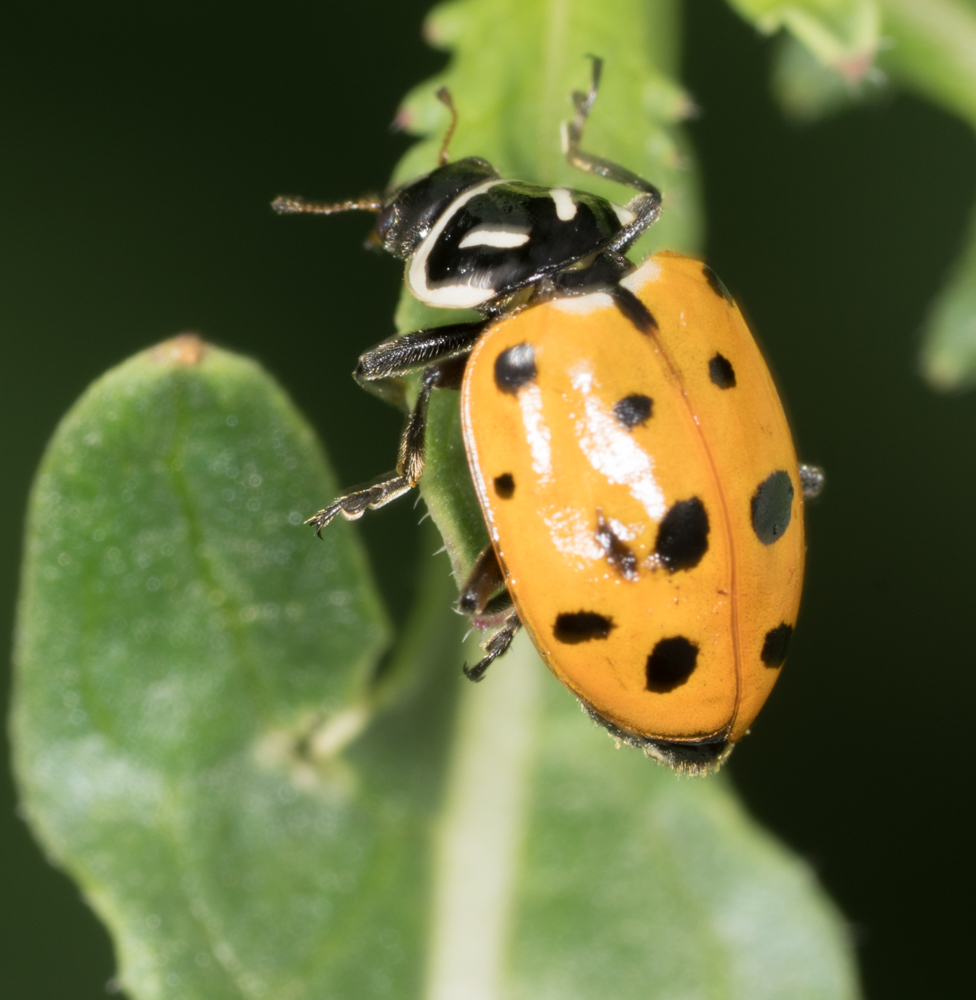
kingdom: Animalia
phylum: Arthropoda
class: Insecta
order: Coleoptera
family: Coccinellidae
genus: Hippodamia
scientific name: Hippodamia convergens
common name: Convergent lady beetle
